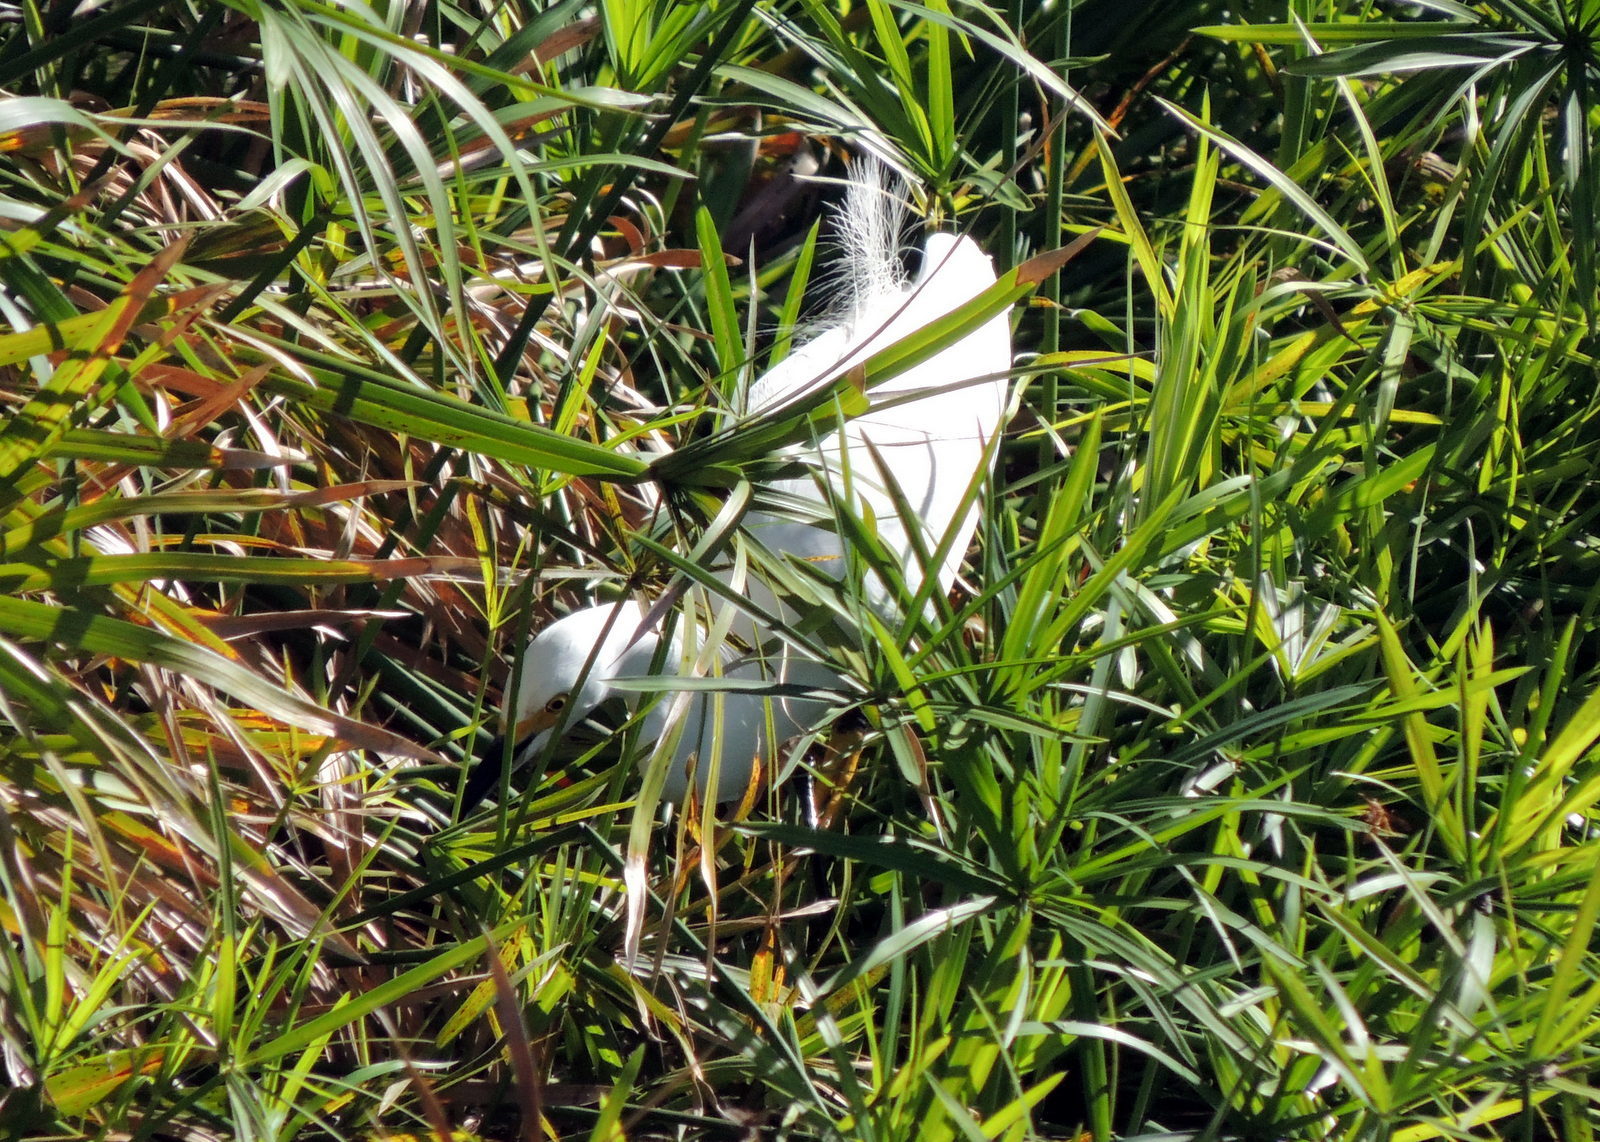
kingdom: Animalia
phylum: Chordata
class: Aves
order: Pelecaniformes
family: Ardeidae
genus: Egretta
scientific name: Egretta thula
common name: Snowy egret
